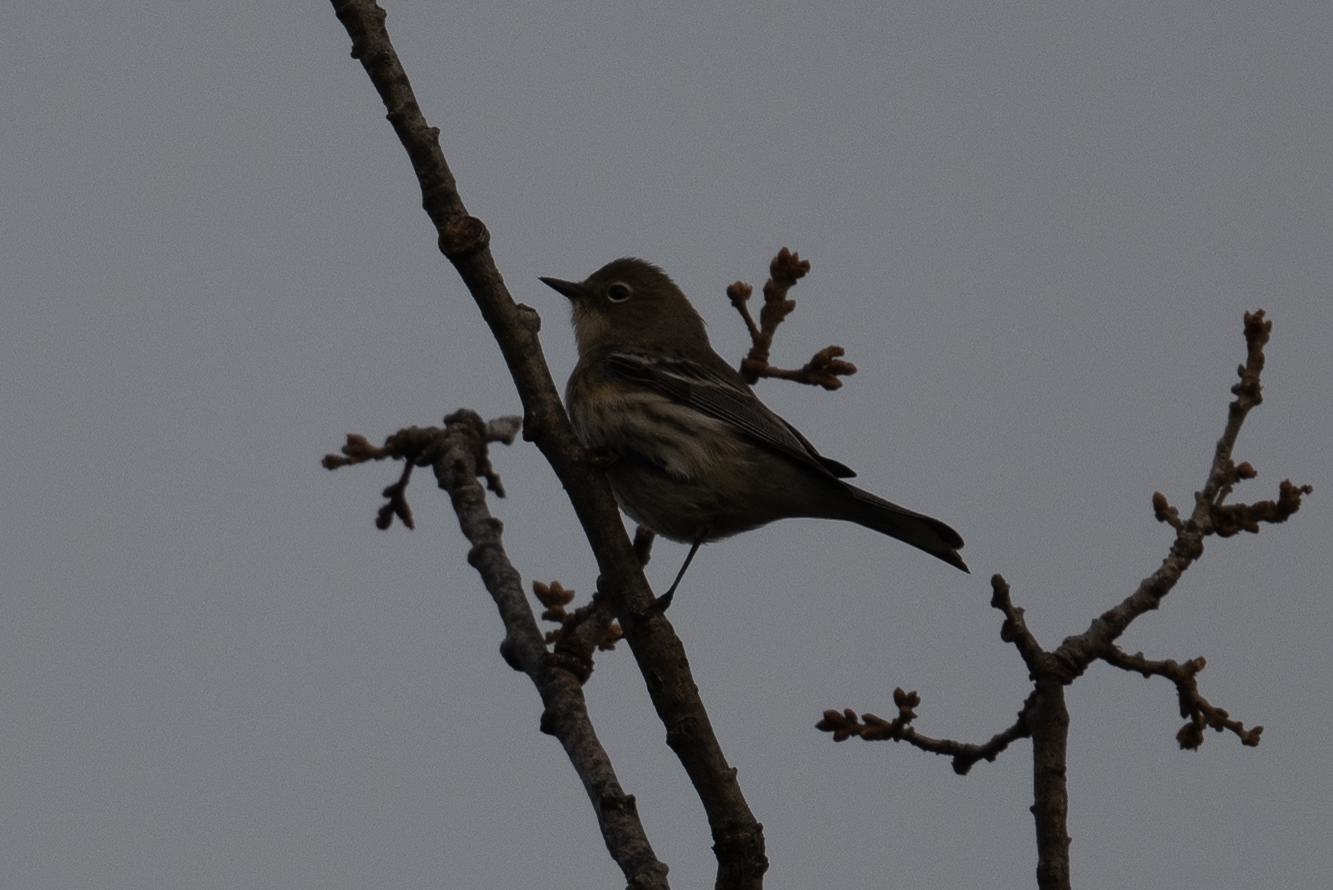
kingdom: Animalia
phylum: Chordata
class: Aves
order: Passeriformes
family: Parulidae
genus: Setophaga
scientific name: Setophaga coronata
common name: Myrtle warbler
